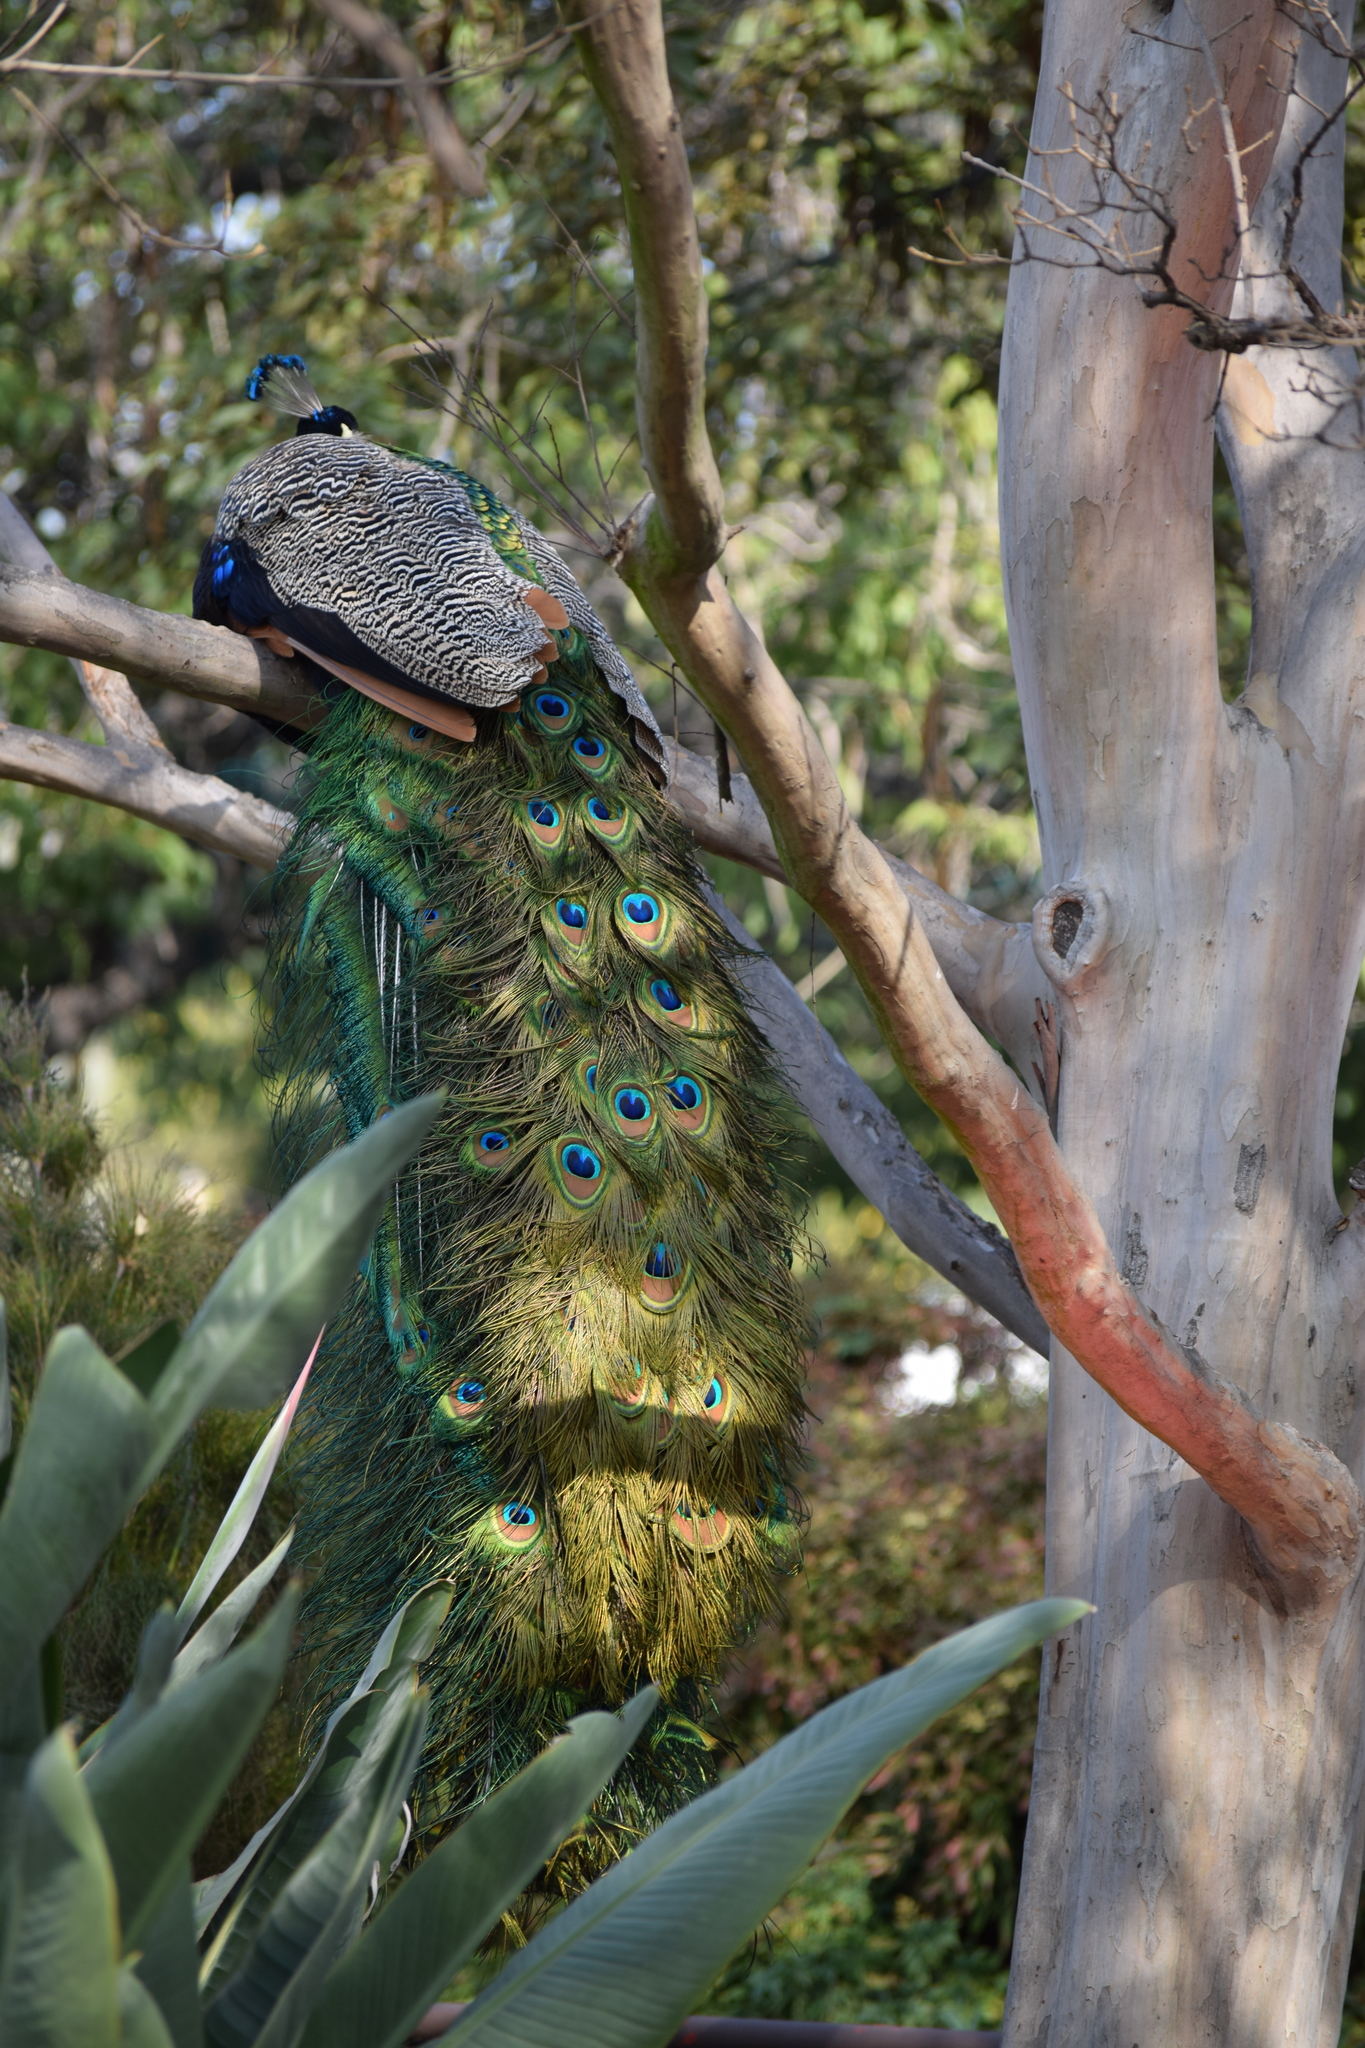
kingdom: Animalia
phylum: Chordata
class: Aves
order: Galliformes
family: Phasianidae
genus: Pavo
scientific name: Pavo cristatus
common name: Indian peafowl
